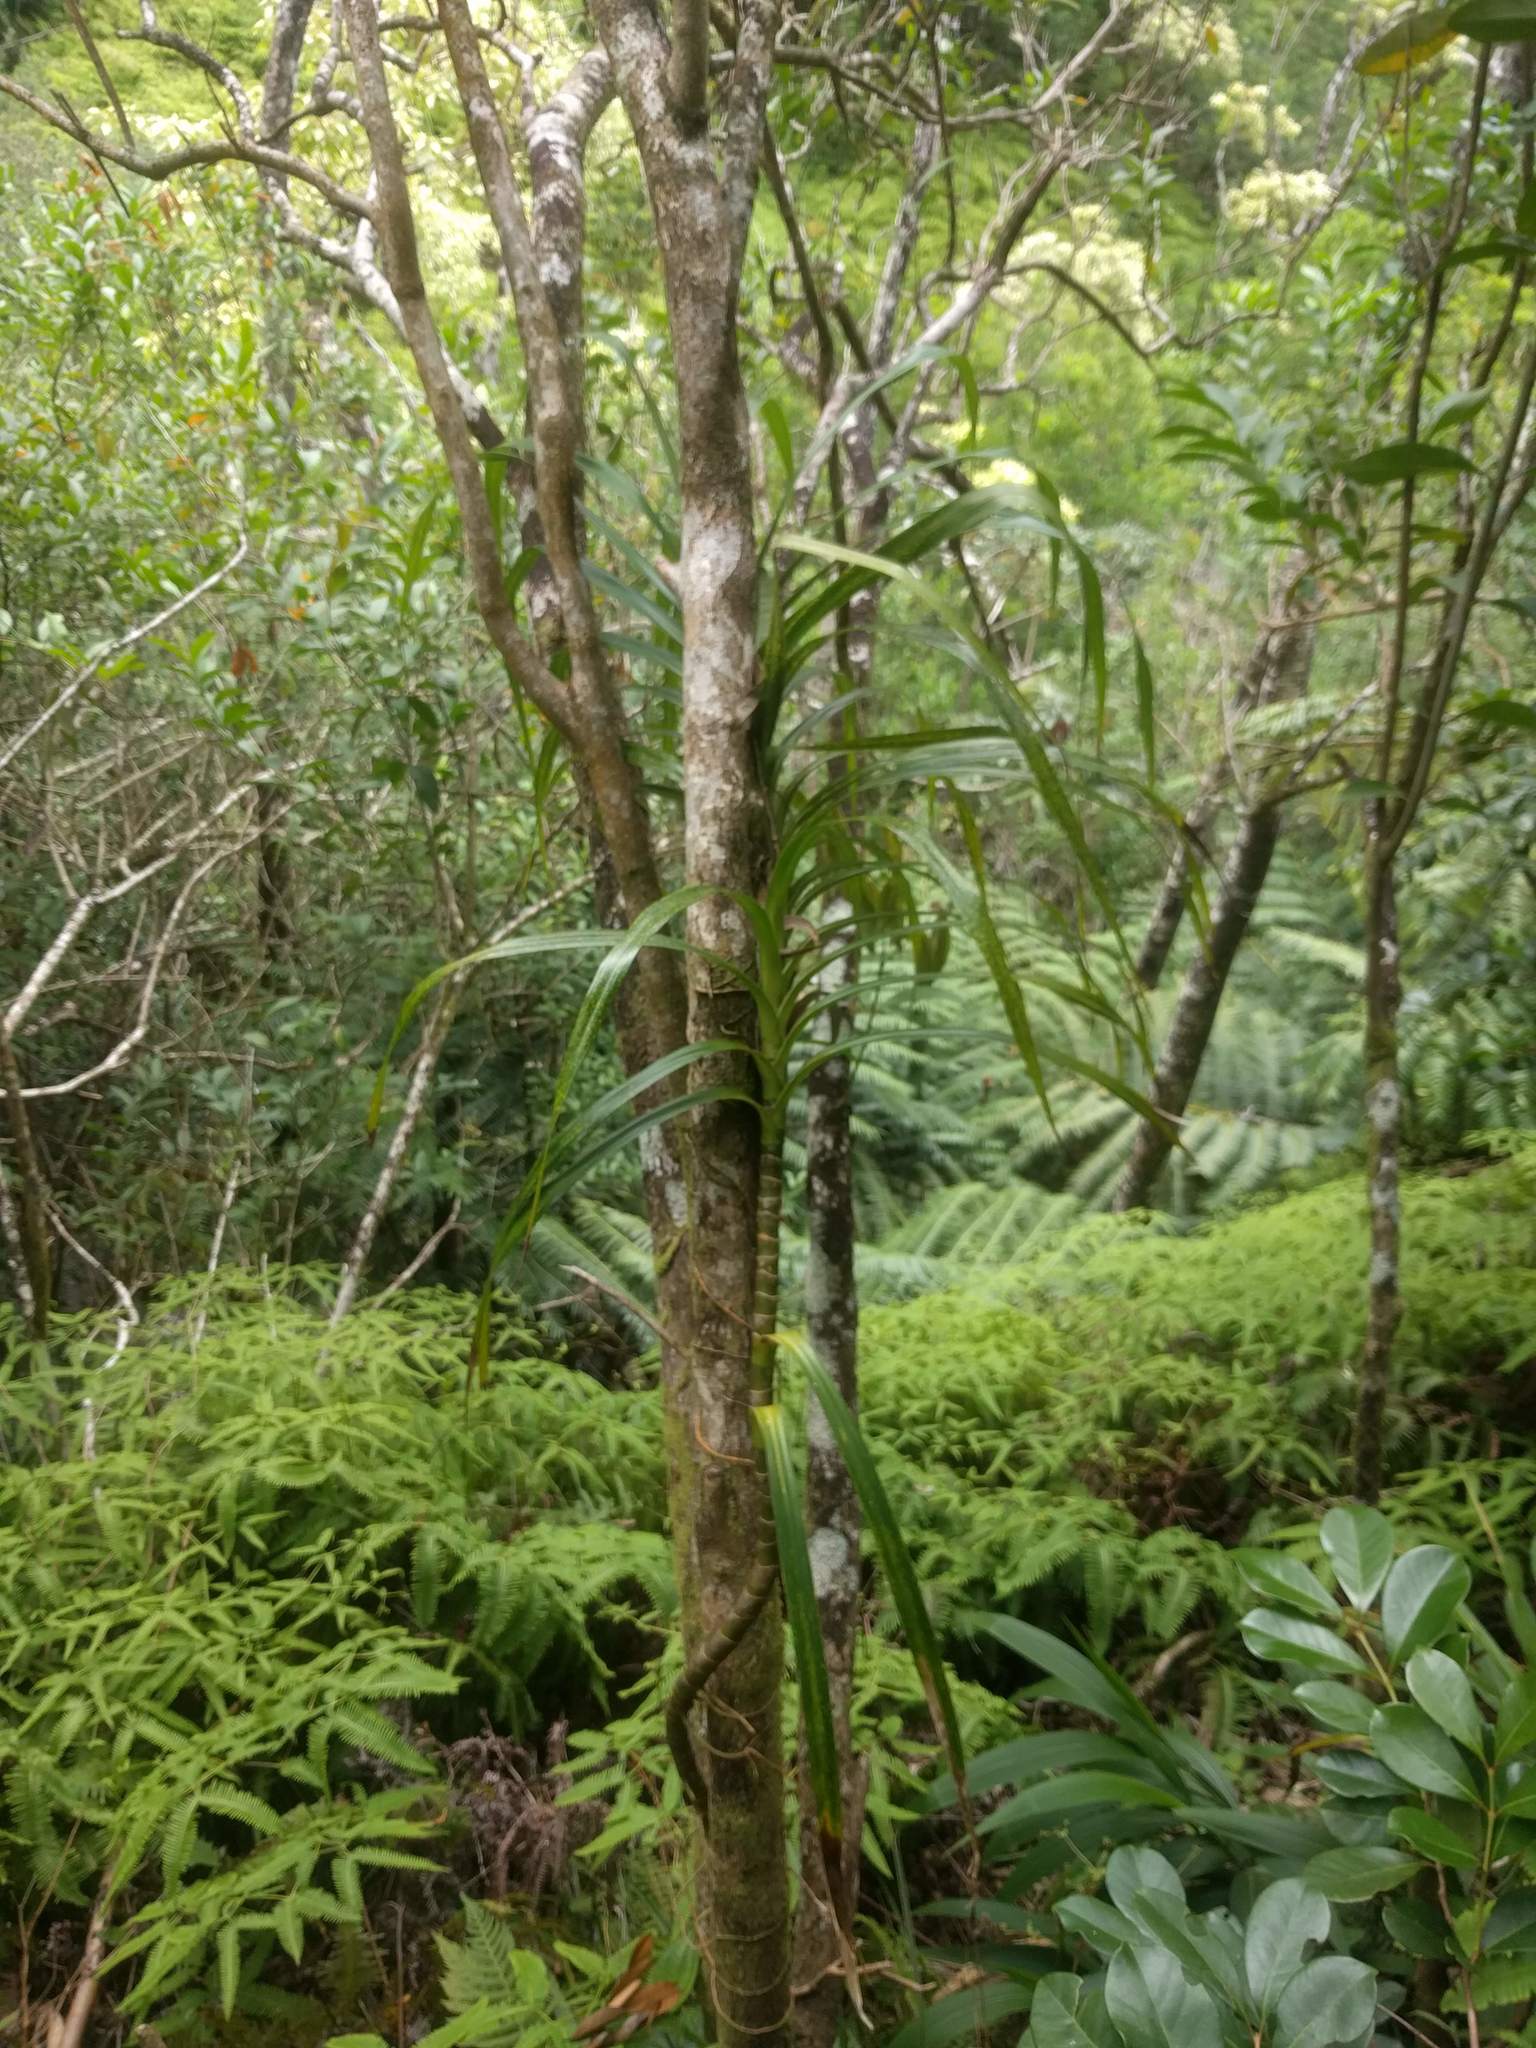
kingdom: Plantae
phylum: Tracheophyta
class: Liliopsida
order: Pandanales
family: Pandanaceae
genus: Freycinetia
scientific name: Freycinetia arborea
